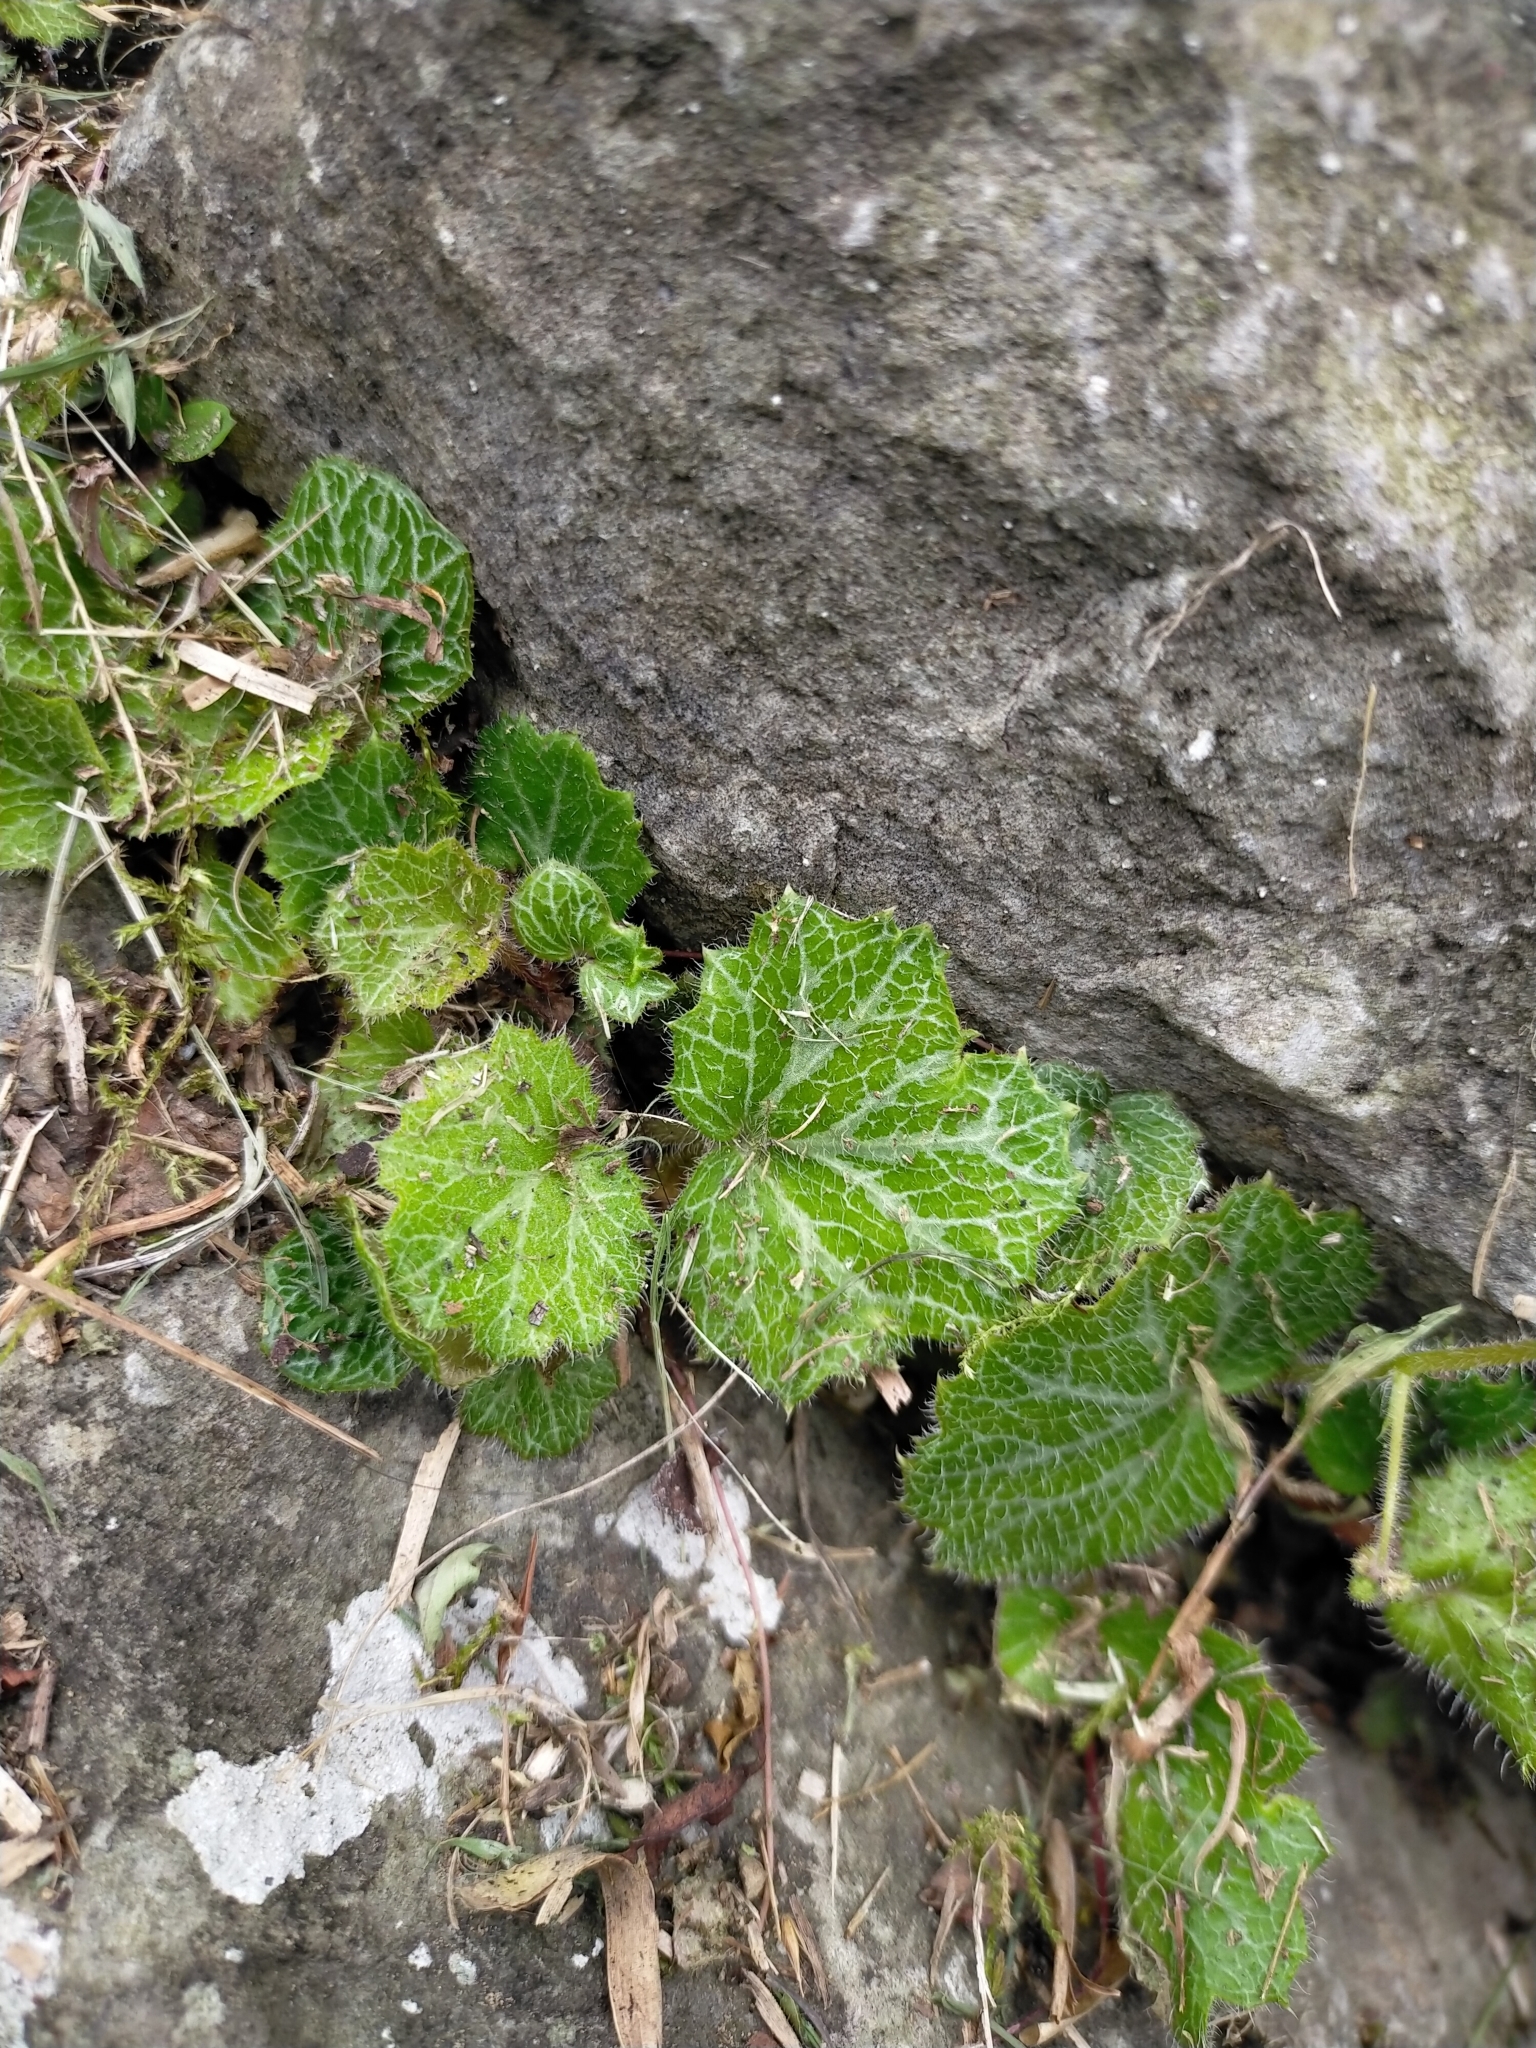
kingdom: Plantae
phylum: Tracheophyta
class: Magnoliopsida
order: Saxifragales
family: Saxifragaceae
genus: Saxifraga
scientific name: Saxifraga stolonifera
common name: Creeping saxifrage
